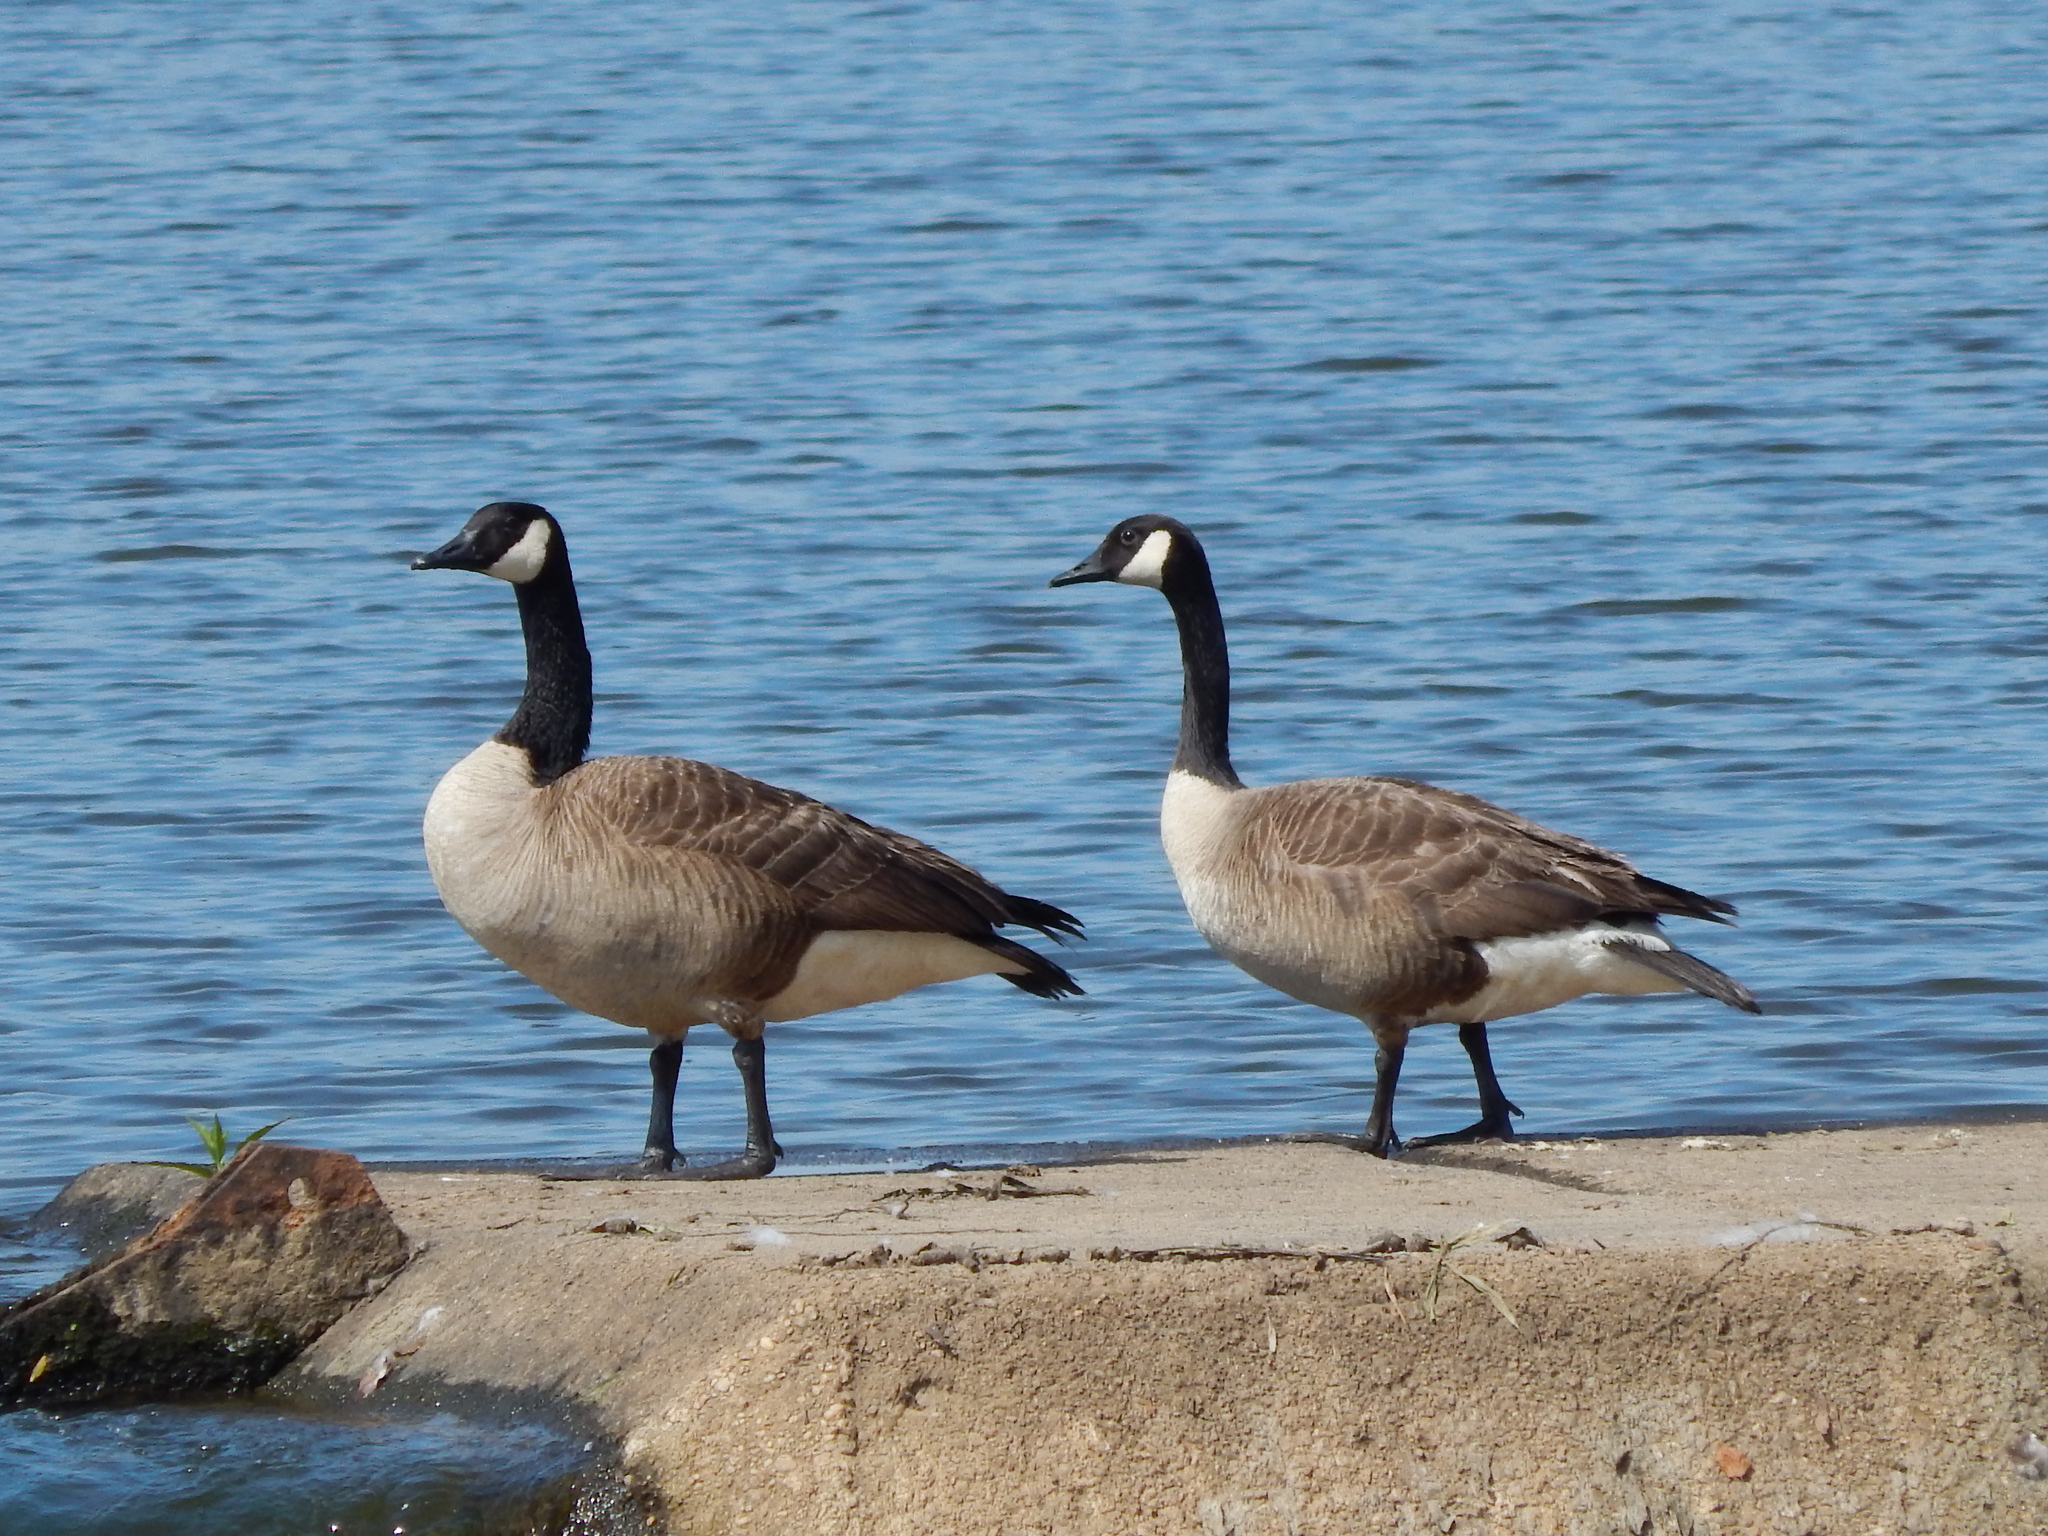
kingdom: Animalia
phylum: Chordata
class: Aves
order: Anseriformes
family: Anatidae
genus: Branta
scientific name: Branta canadensis
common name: Canada goose
